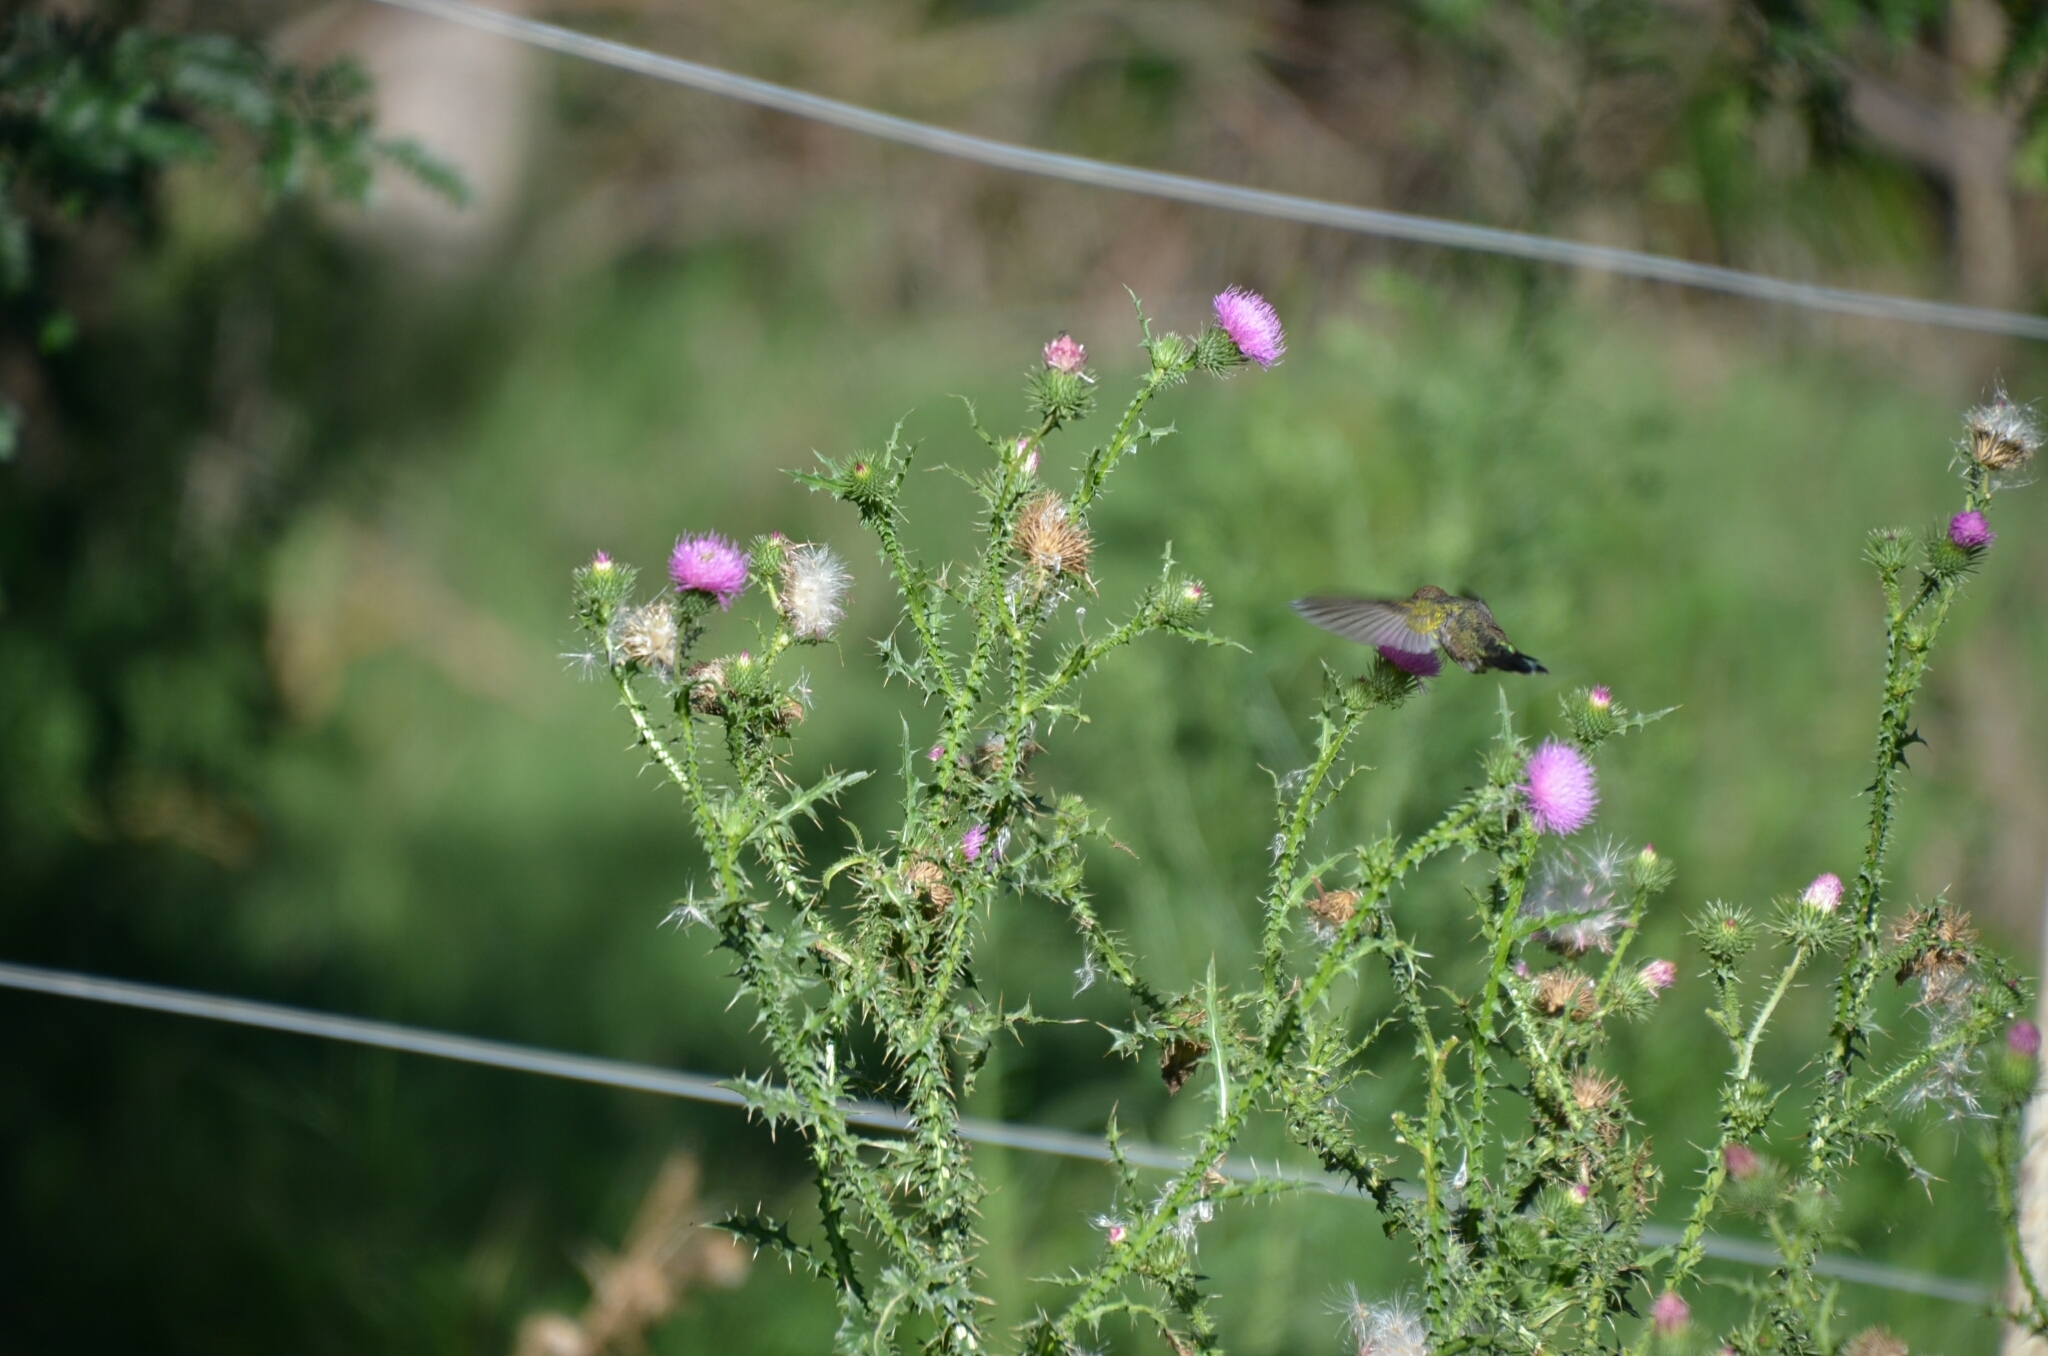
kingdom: Animalia
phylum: Chordata
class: Aves
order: Apodiformes
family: Trochilidae
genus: Chlorostilbon
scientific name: Chlorostilbon lucidus
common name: Glittering-bellied emerald
